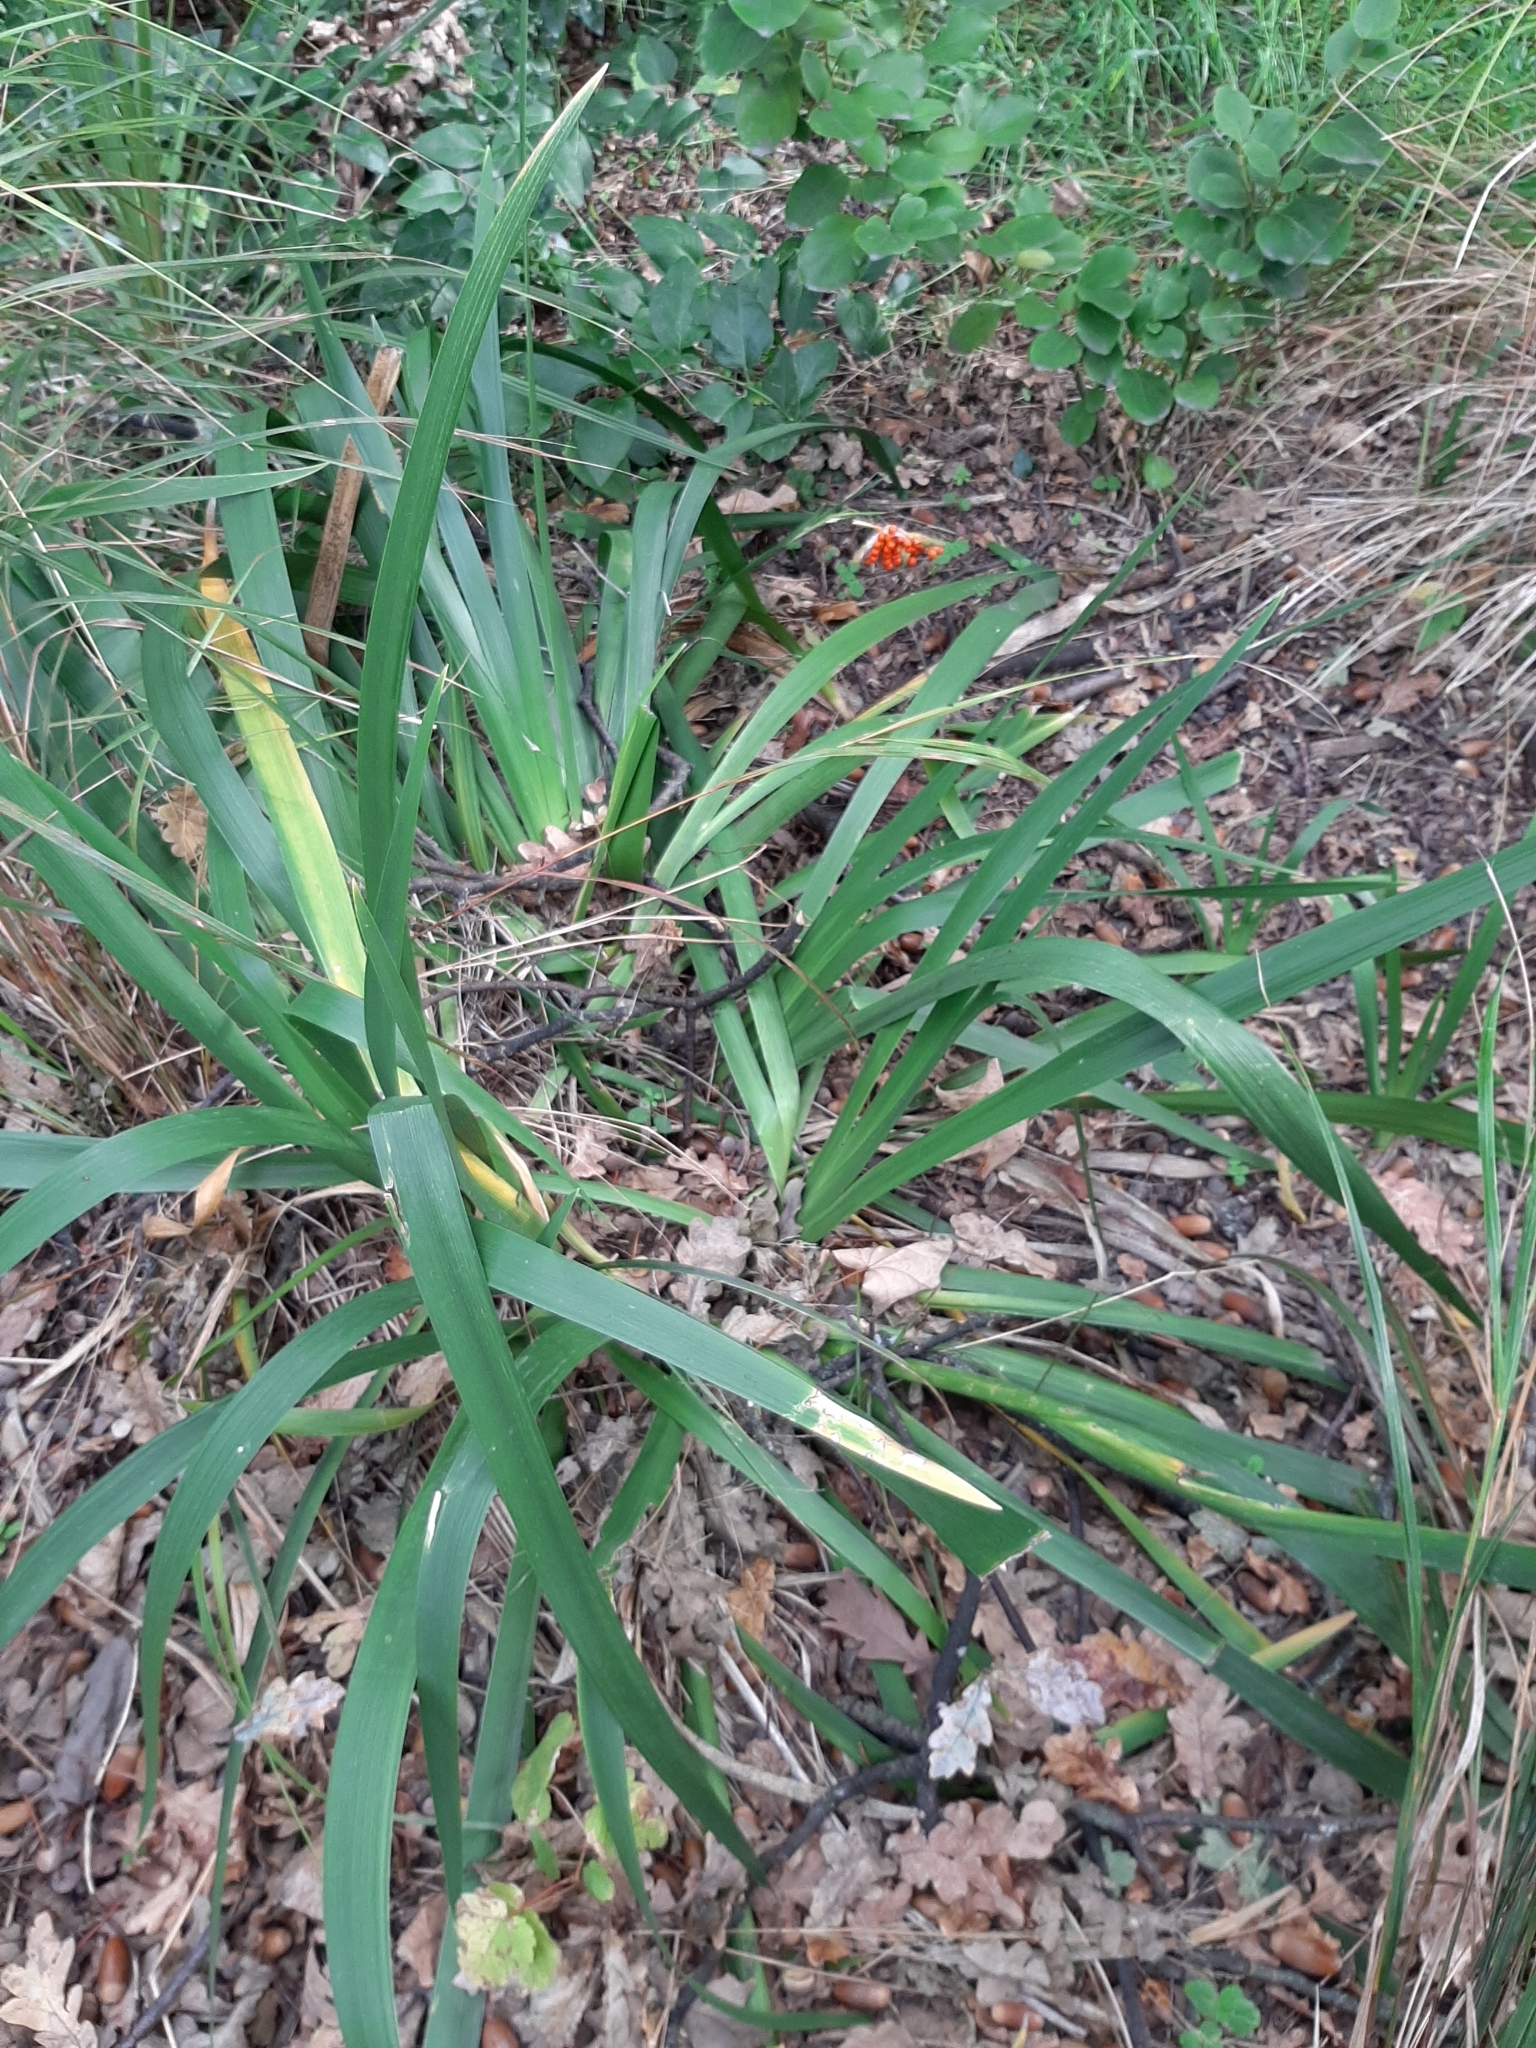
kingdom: Plantae
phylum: Tracheophyta
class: Liliopsida
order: Asparagales
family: Iridaceae
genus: Iris
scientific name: Iris foetidissima
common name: Stinking iris
